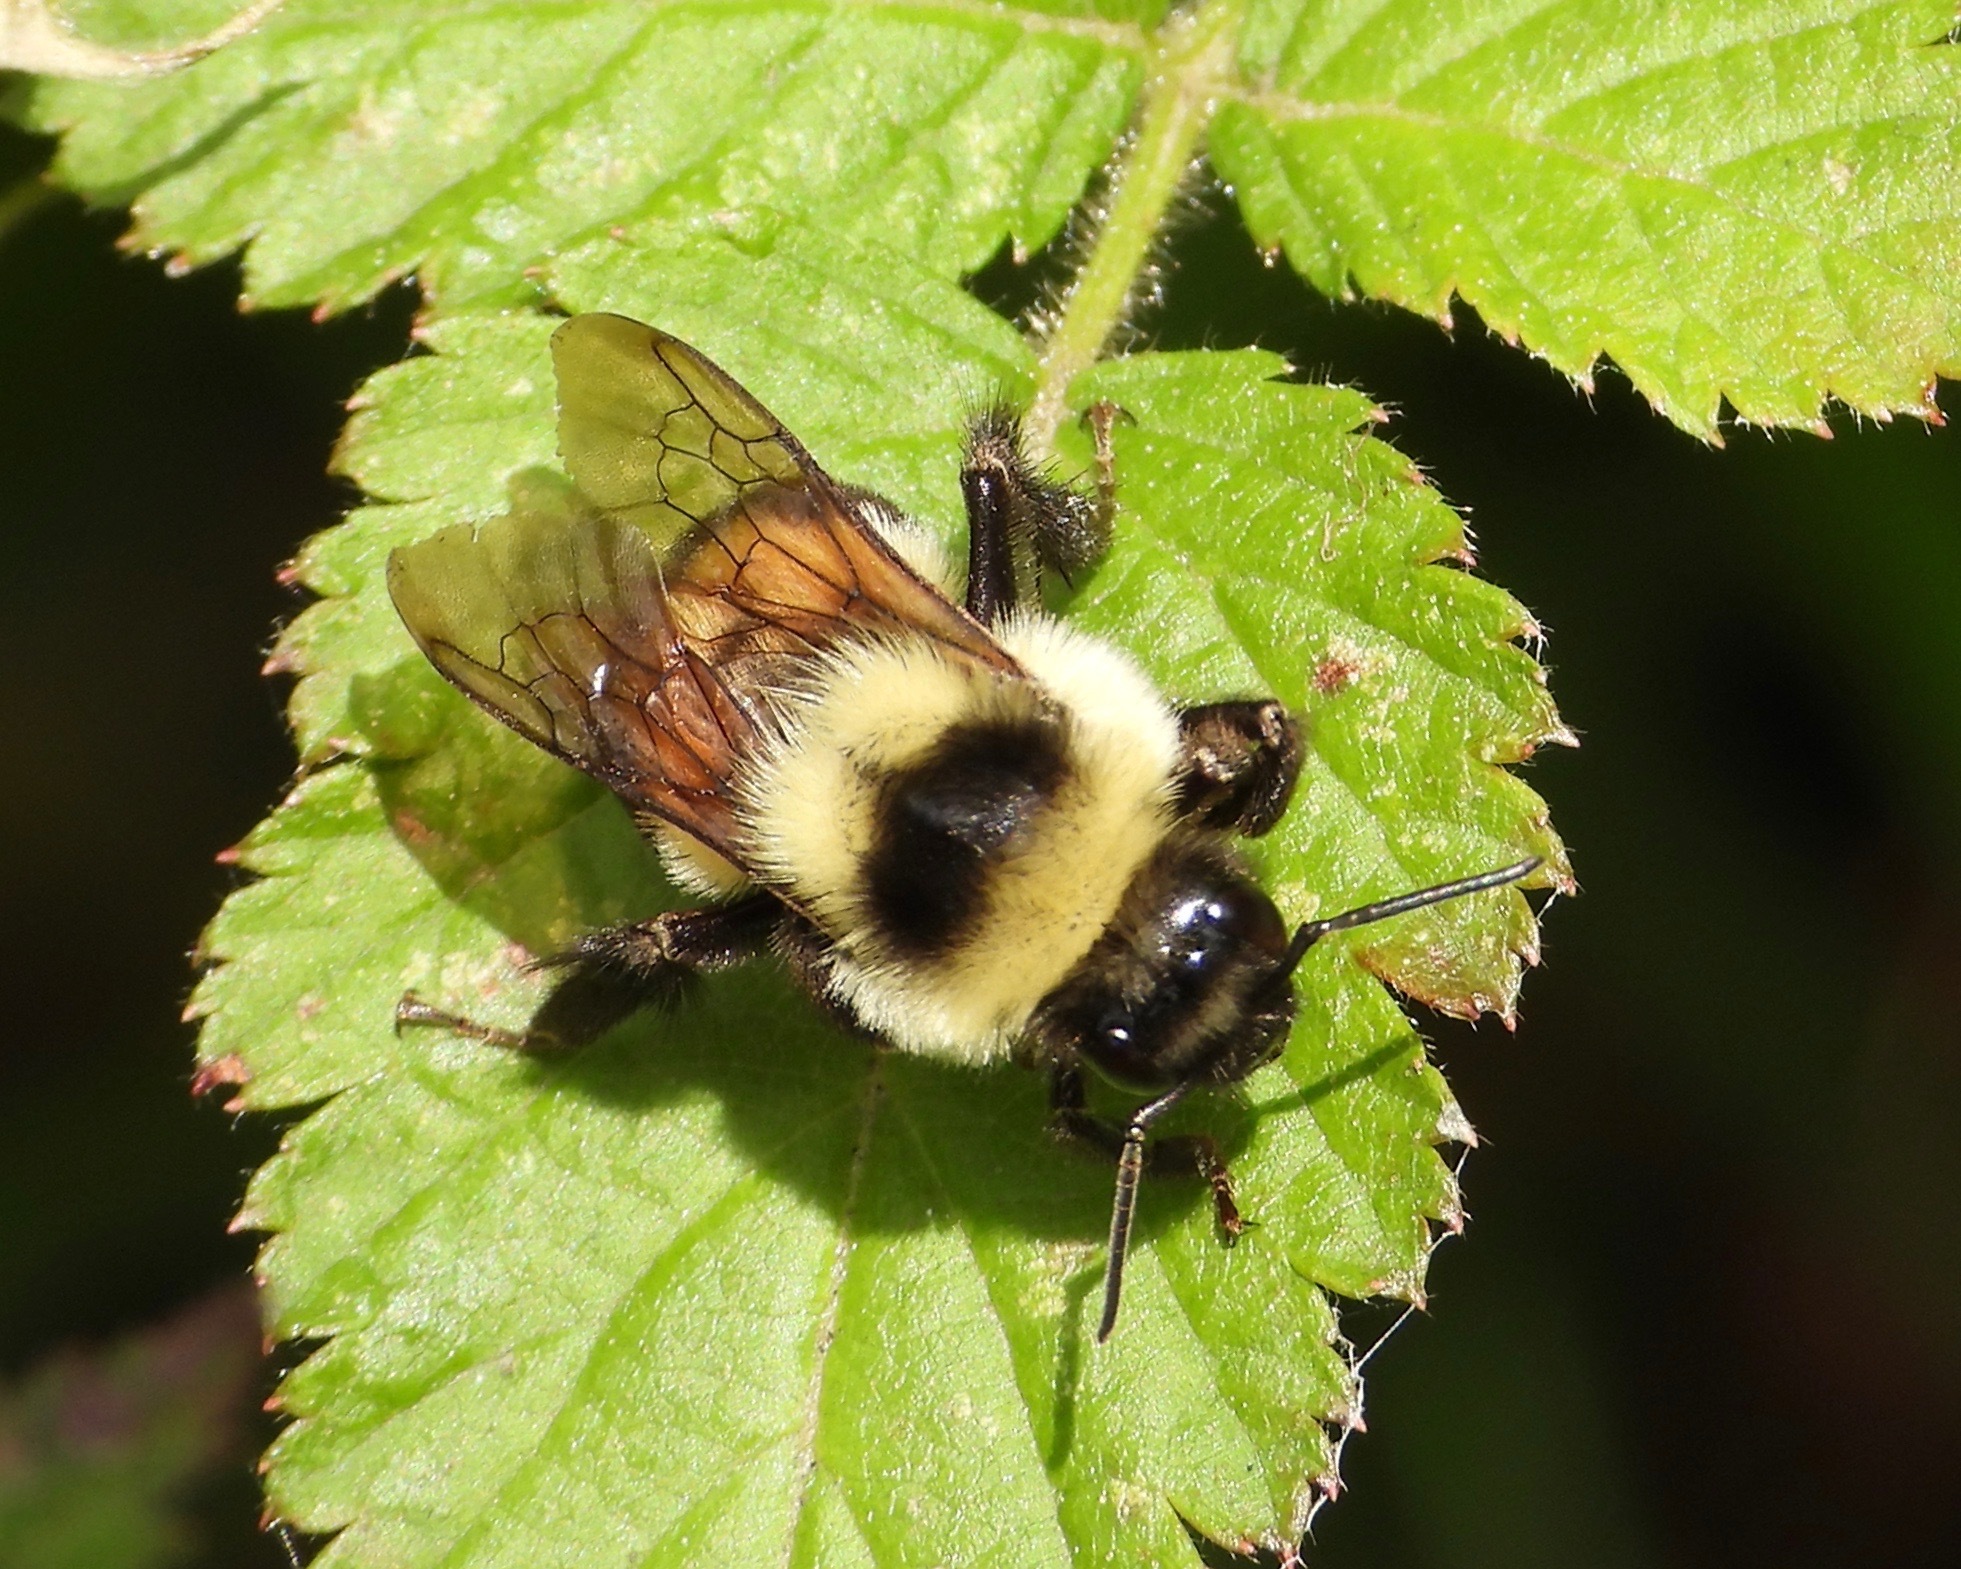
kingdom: Animalia
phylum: Arthropoda
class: Insecta
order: Hymenoptera
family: Apidae
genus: Bombus
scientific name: Bombus wilmattae
